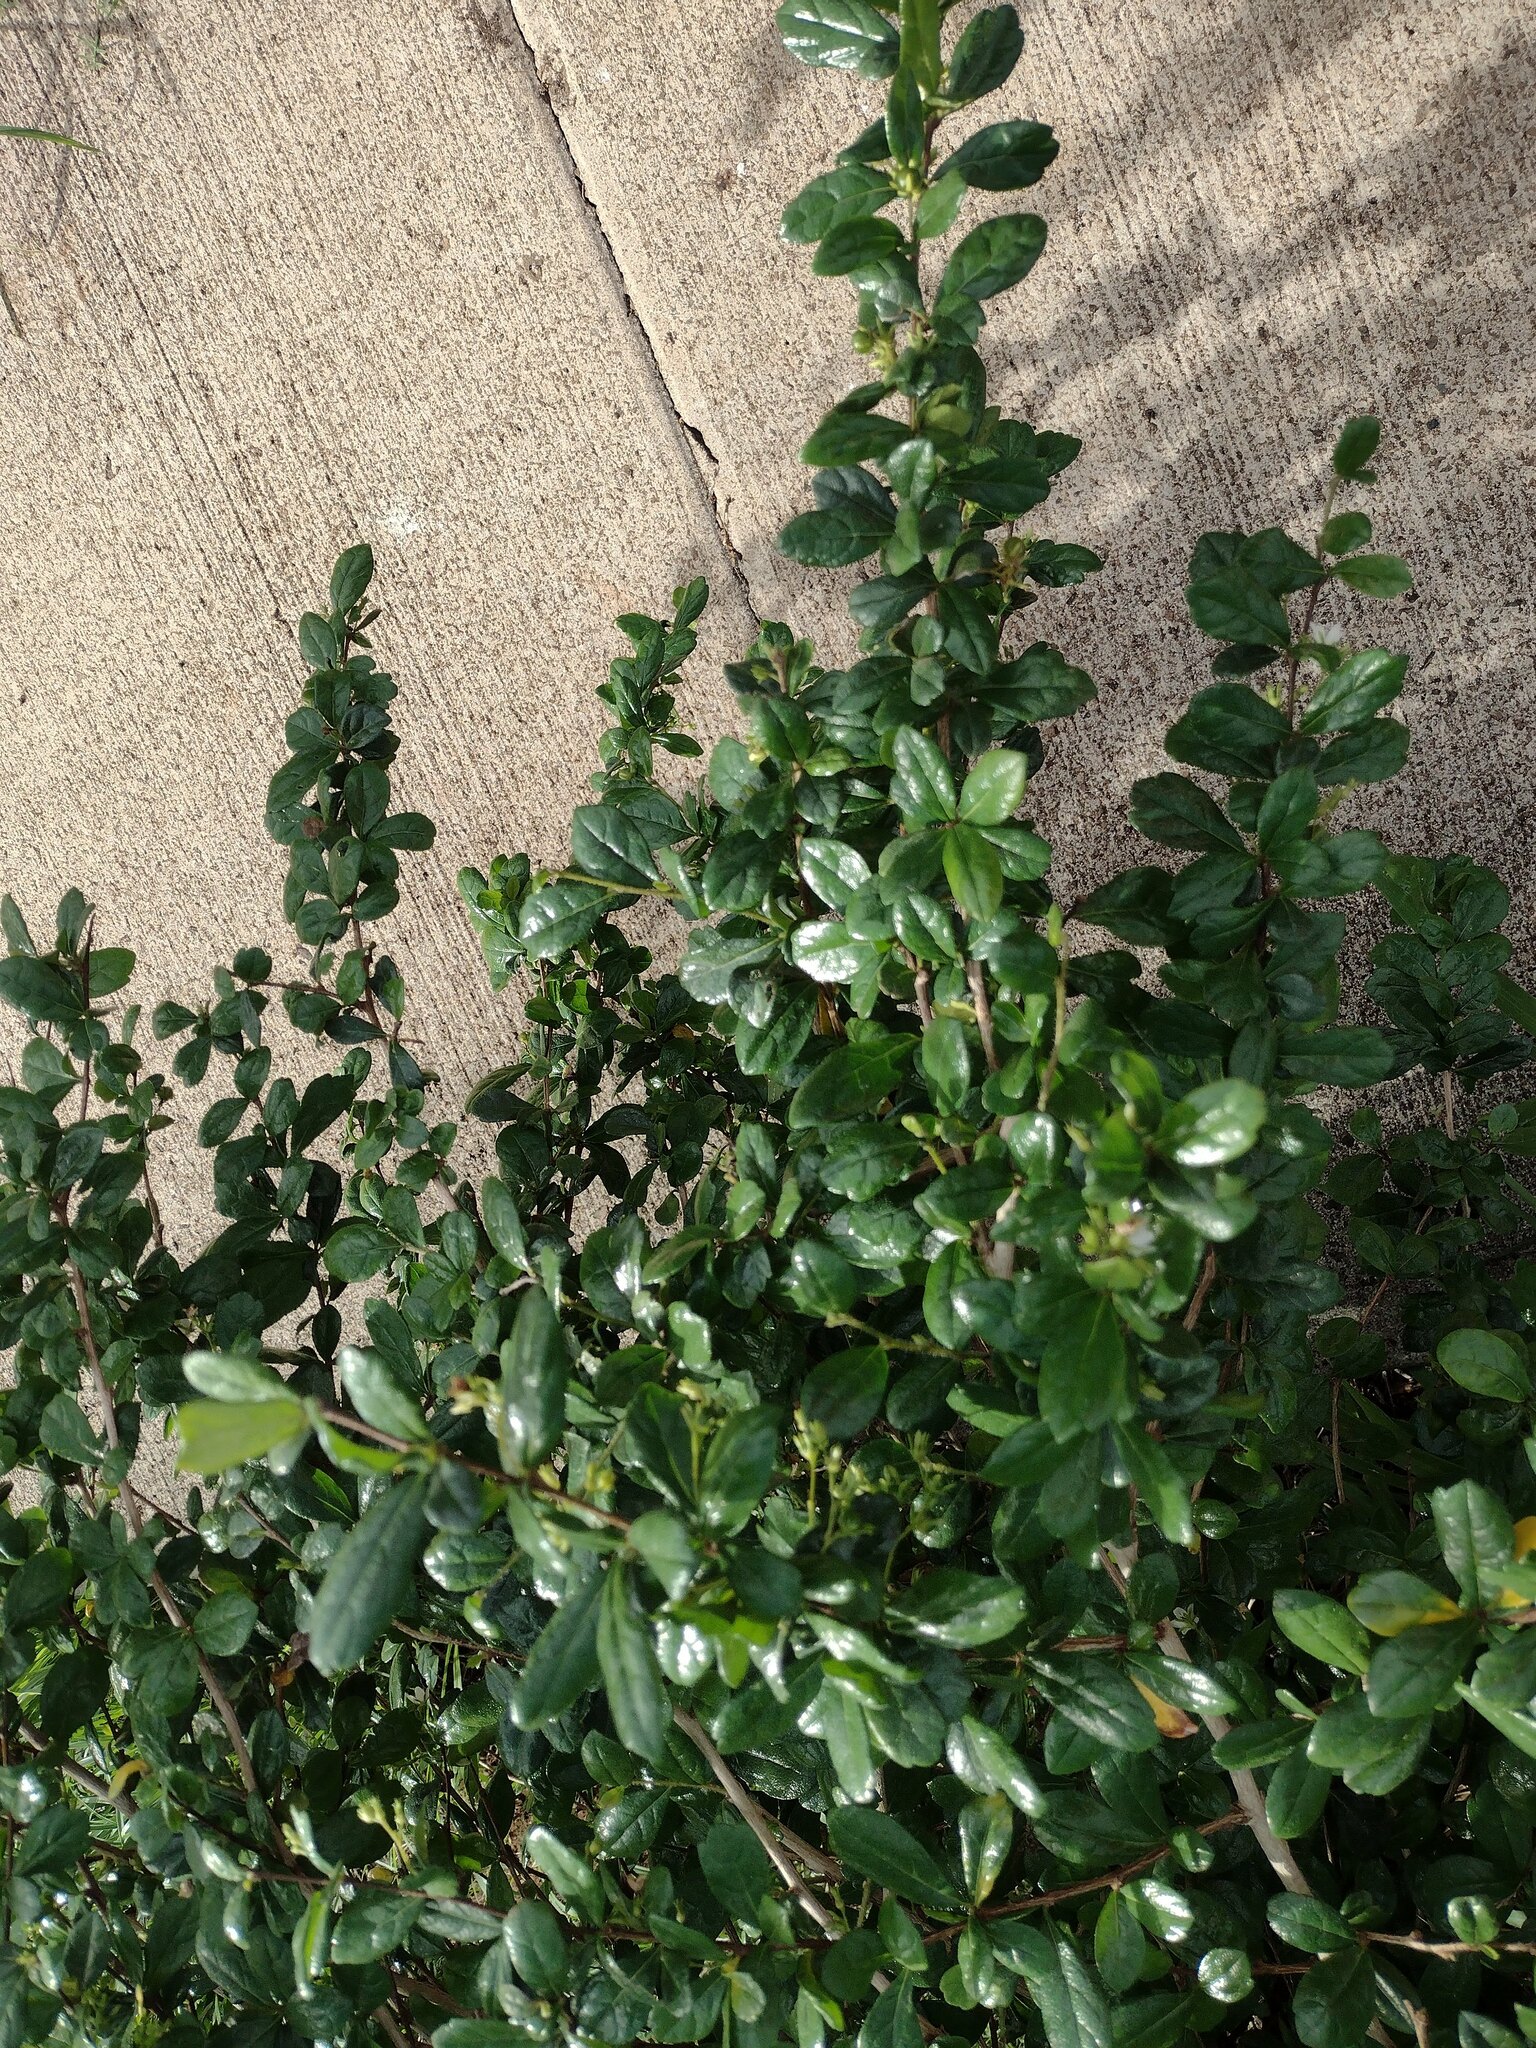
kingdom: Plantae
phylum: Tracheophyta
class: Magnoliopsida
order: Boraginales
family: Ehretiaceae
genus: Ehretia
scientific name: Ehretia microphylla
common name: Fukien-tea
